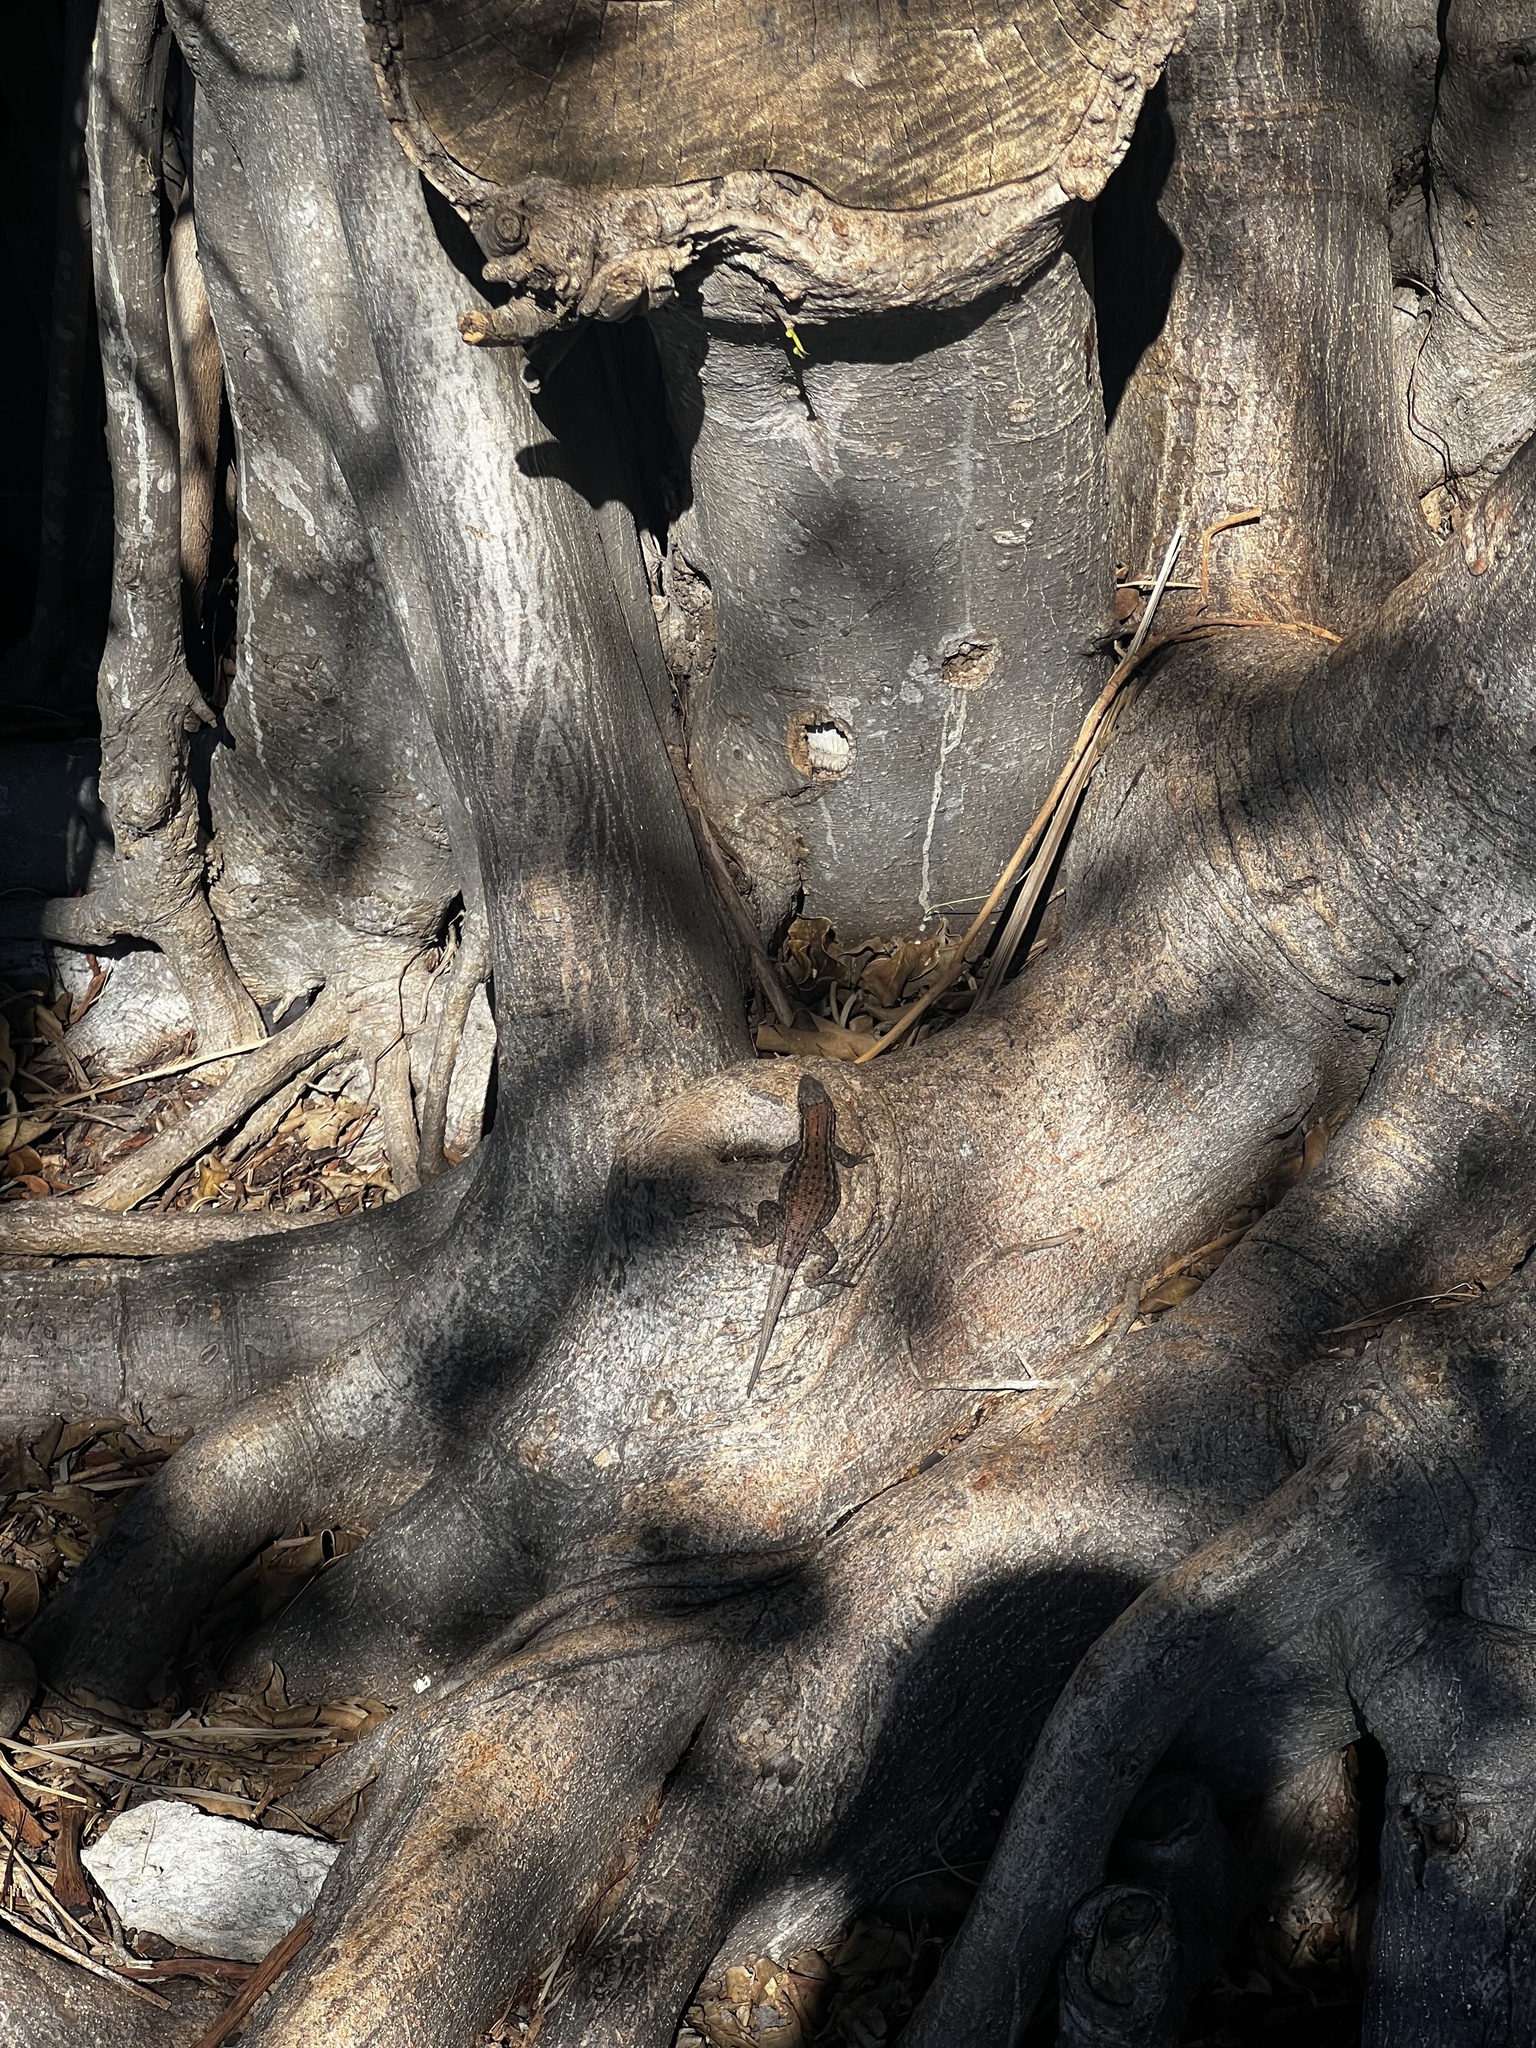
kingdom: Animalia
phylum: Chordata
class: Squamata
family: Leiocephalidae
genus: Leiocephalus
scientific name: Leiocephalus carinatus
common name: Northern curly-tailed lizard
